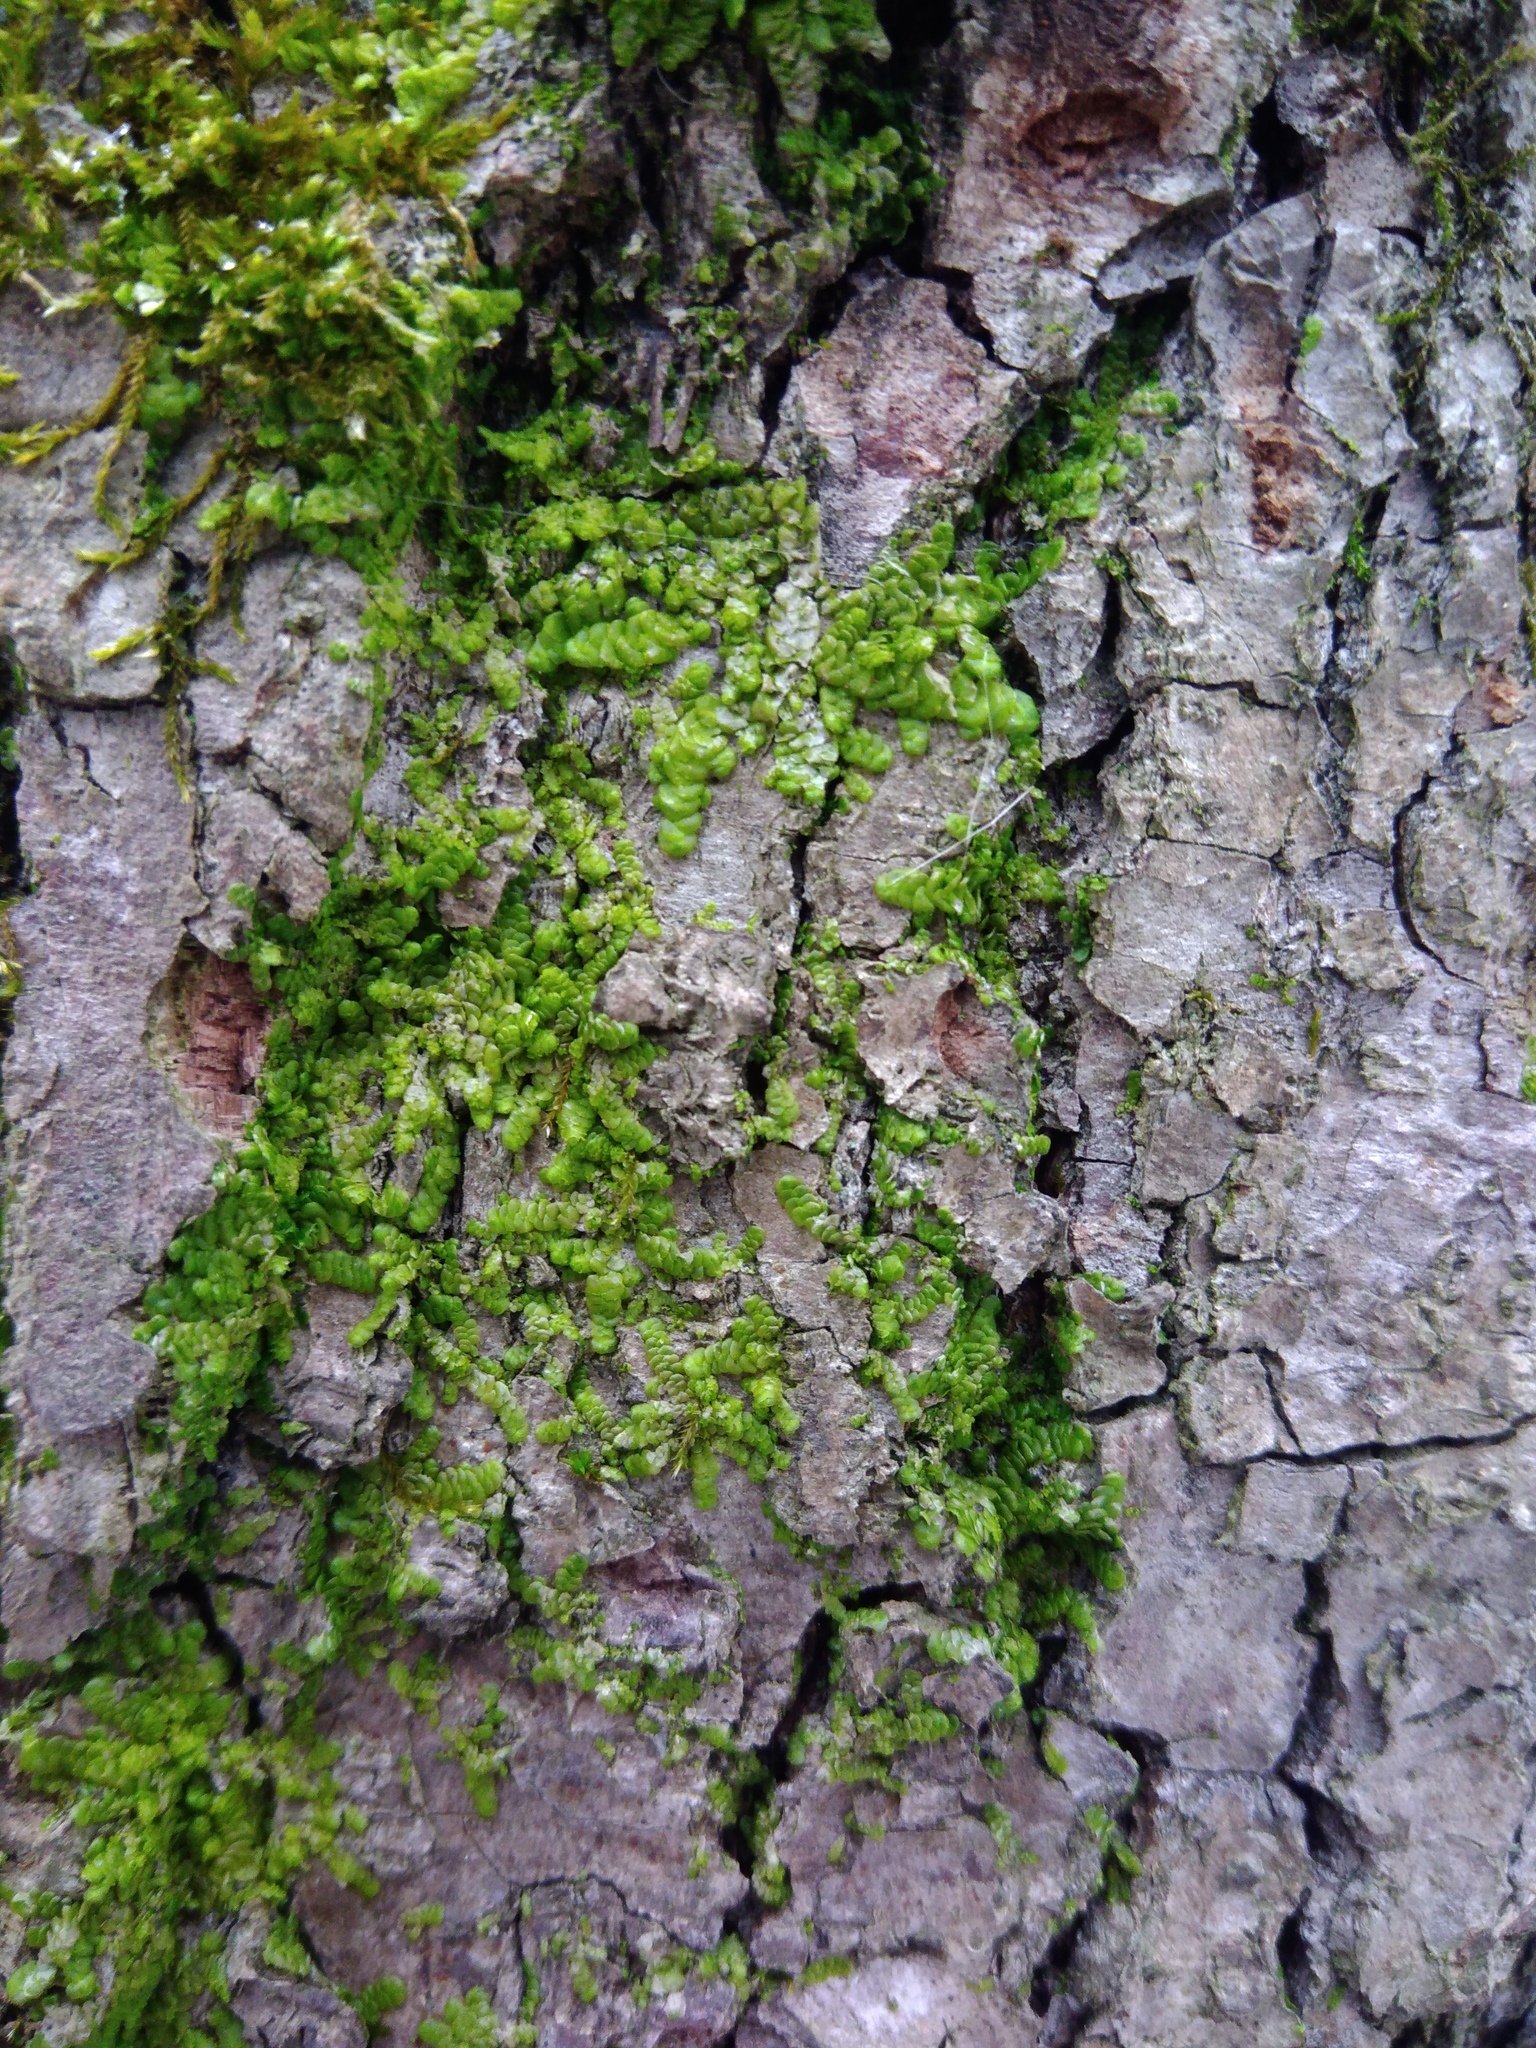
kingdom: Plantae
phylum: Marchantiophyta
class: Jungermanniopsida
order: Porellales
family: Radulaceae
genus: Radula
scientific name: Radula complanata
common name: Flat-leaved scalewort
